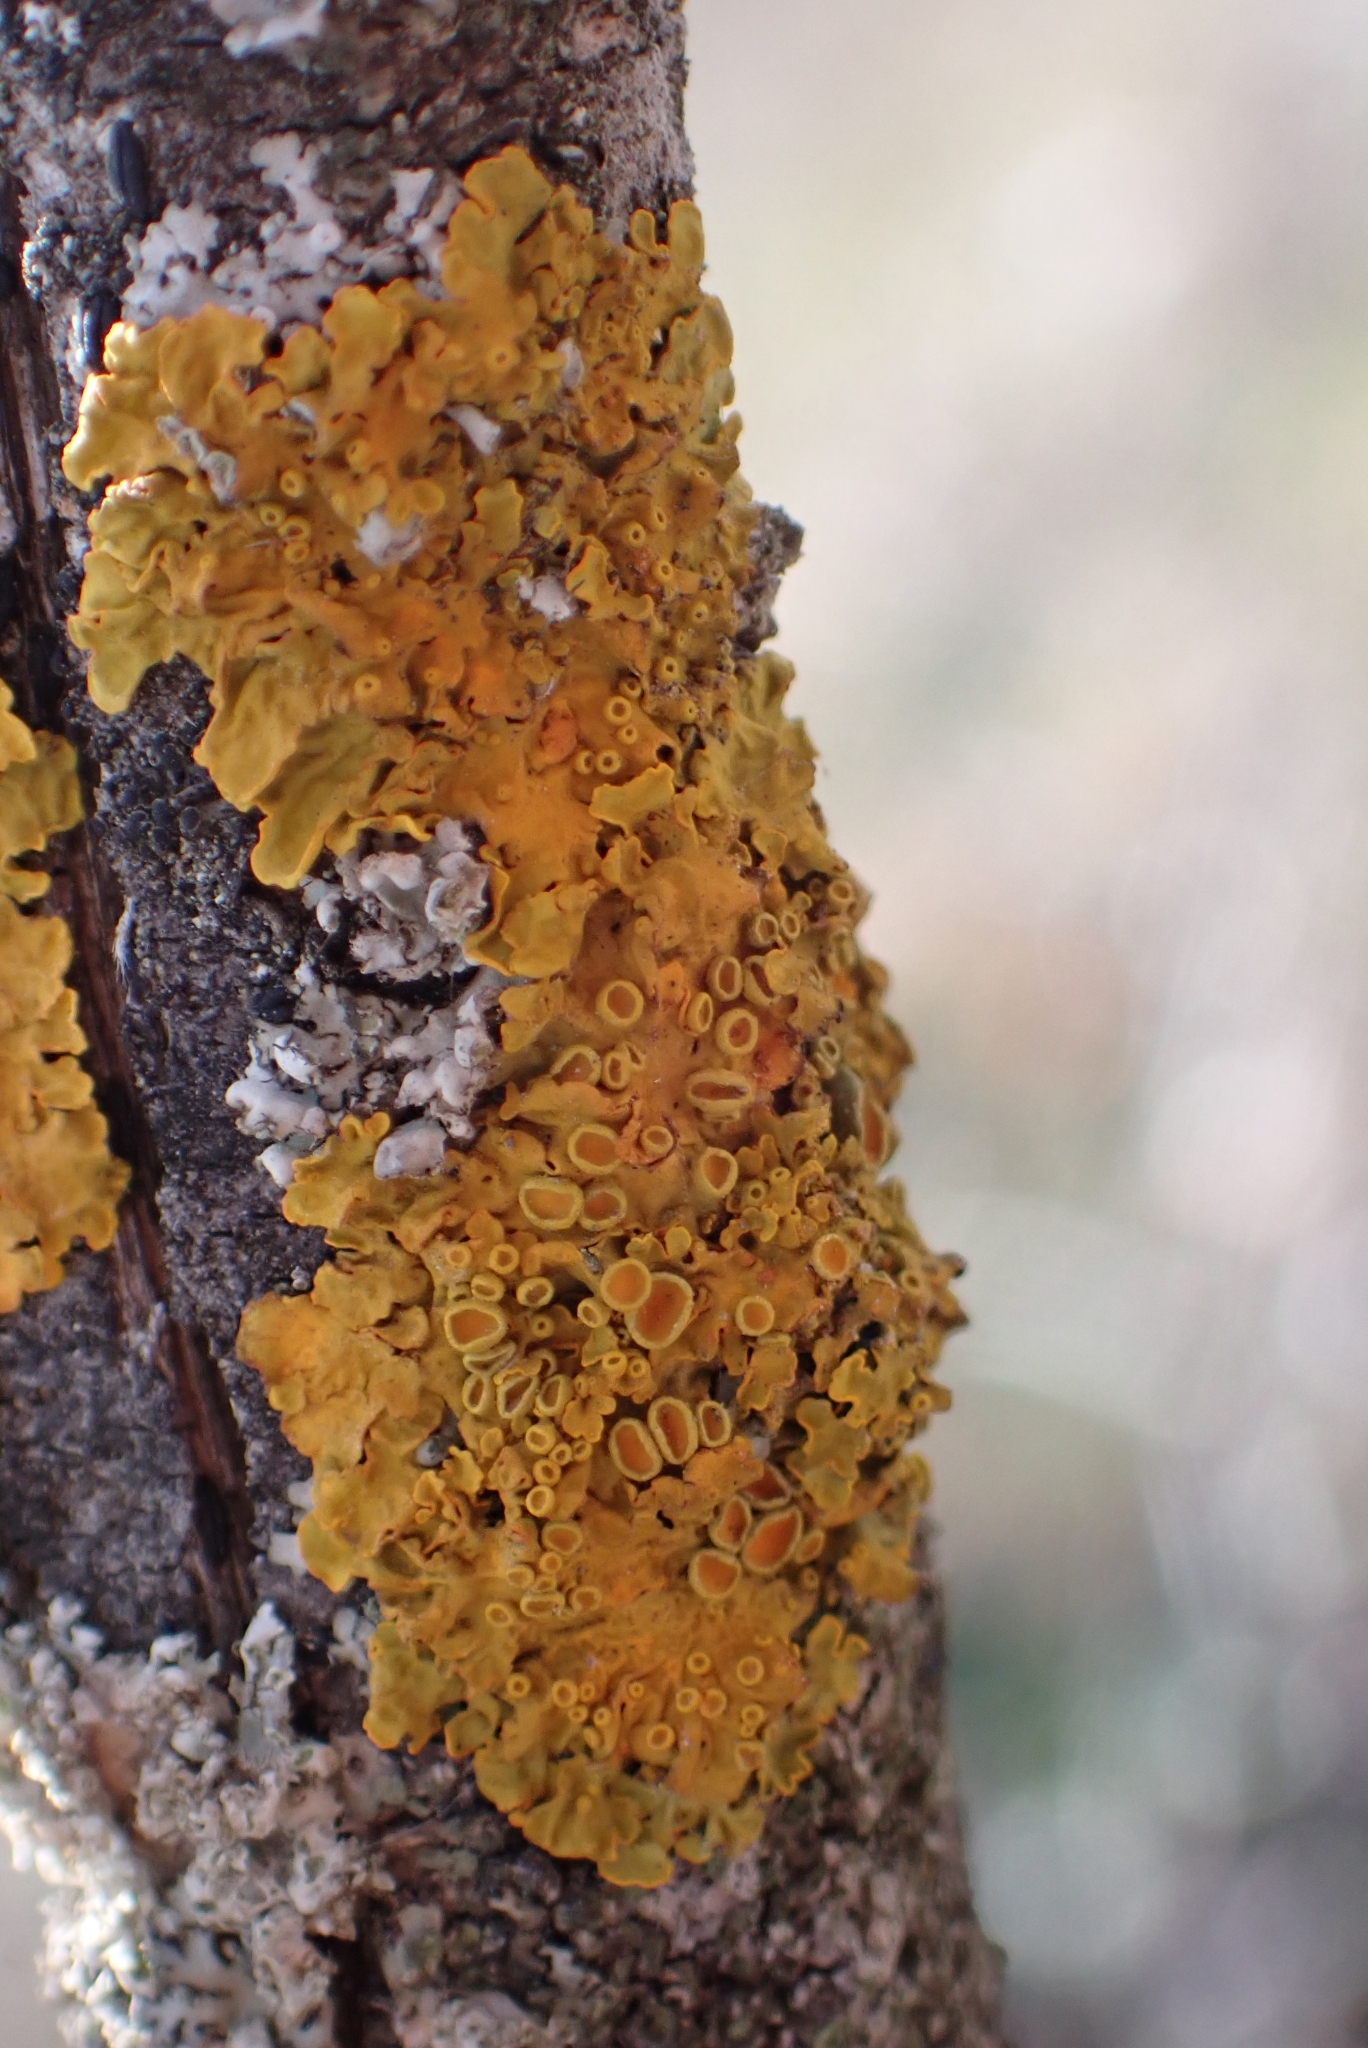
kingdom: Fungi
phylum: Ascomycota
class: Lecanoromycetes
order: Teloschistales
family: Teloschistaceae
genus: Xanthoria
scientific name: Xanthoria parietina
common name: Common orange lichen
